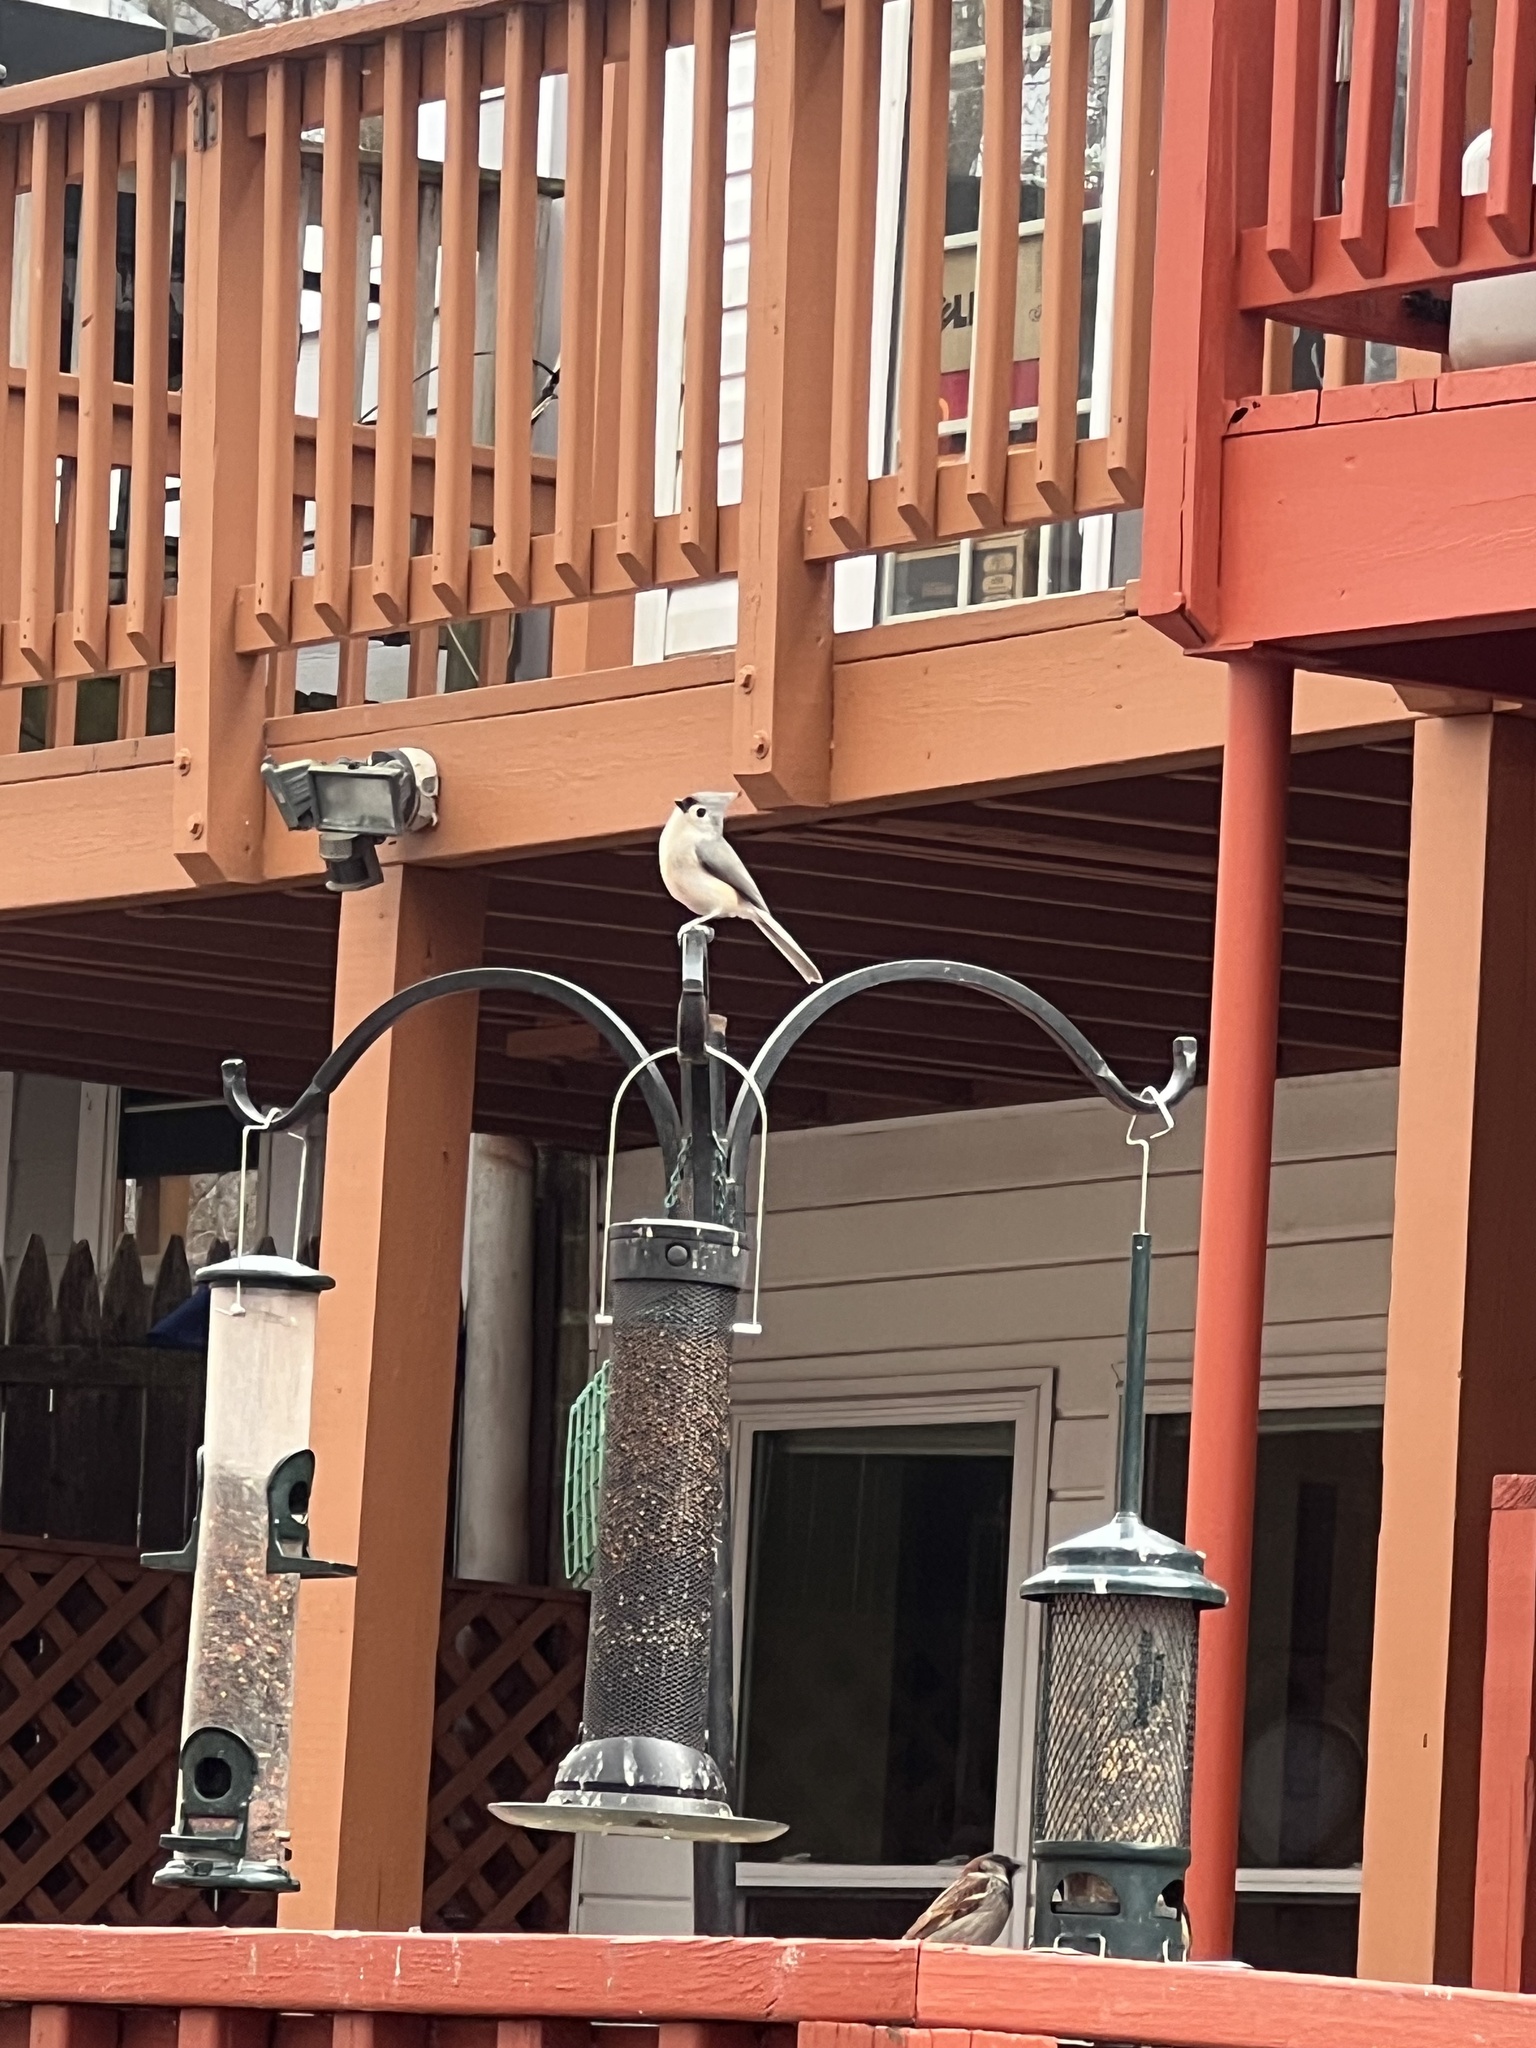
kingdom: Animalia
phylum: Chordata
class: Aves
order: Passeriformes
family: Paridae
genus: Baeolophus
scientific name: Baeolophus bicolor
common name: Tufted titmouse
